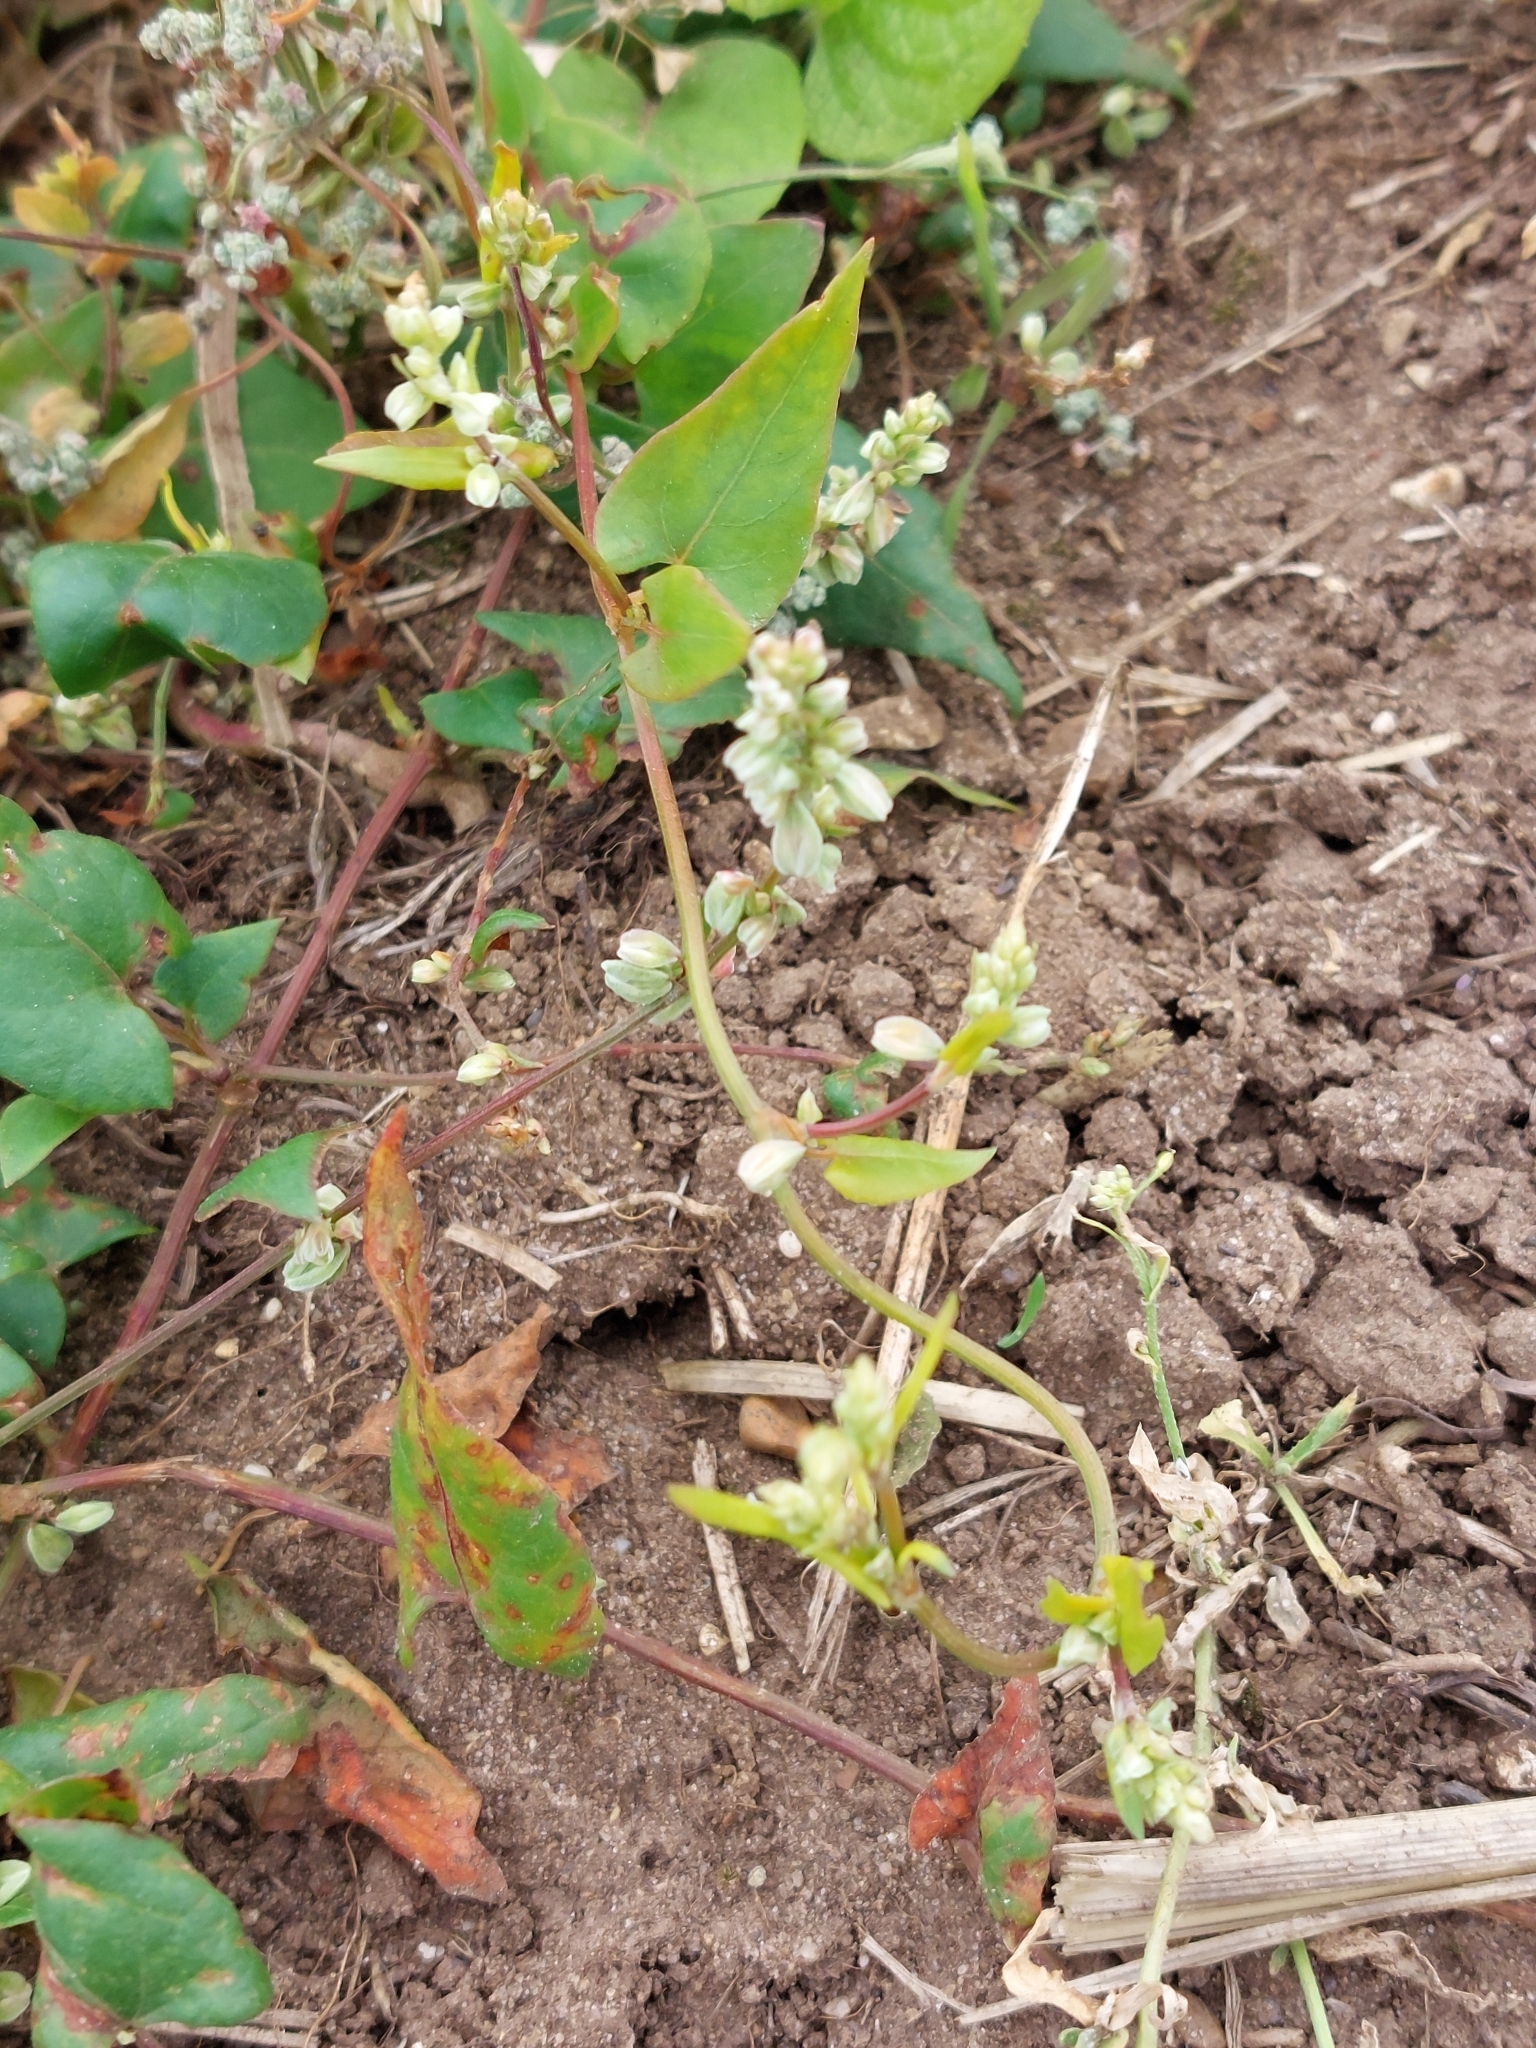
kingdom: Plantae
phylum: Tracheophyta
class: Magnoliopsida
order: Caryophyllales
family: Polygonaceae
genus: Fallopia
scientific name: Fallopia convolvulus
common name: Black bindweed
